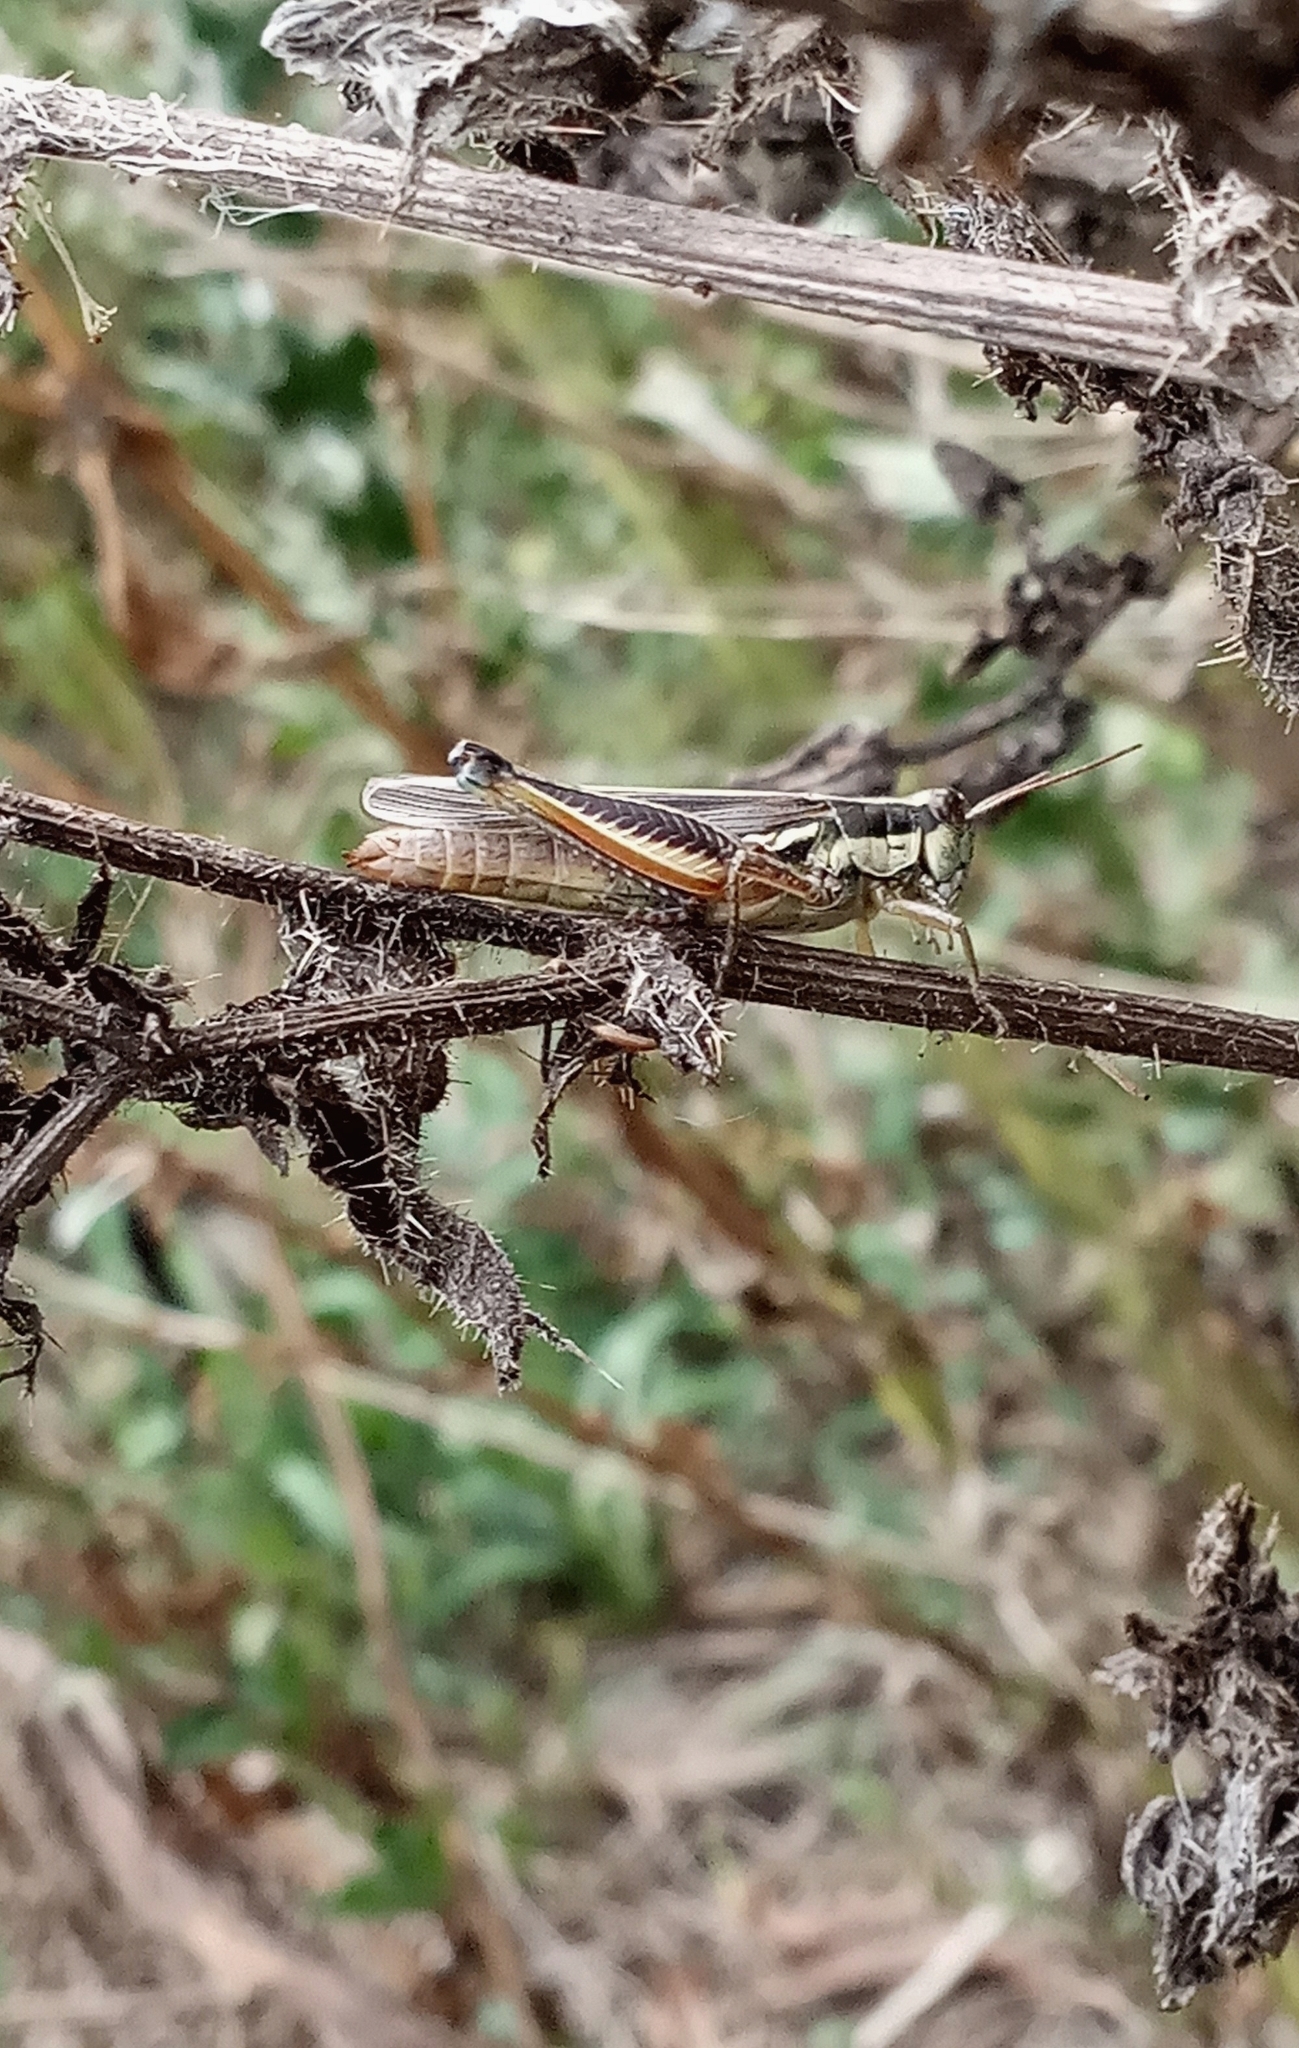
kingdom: Animalia
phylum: Arthropoda
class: Insecta
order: Orthoptera
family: Acrididae
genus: Dichroplus
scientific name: Dichroplus elongatus
